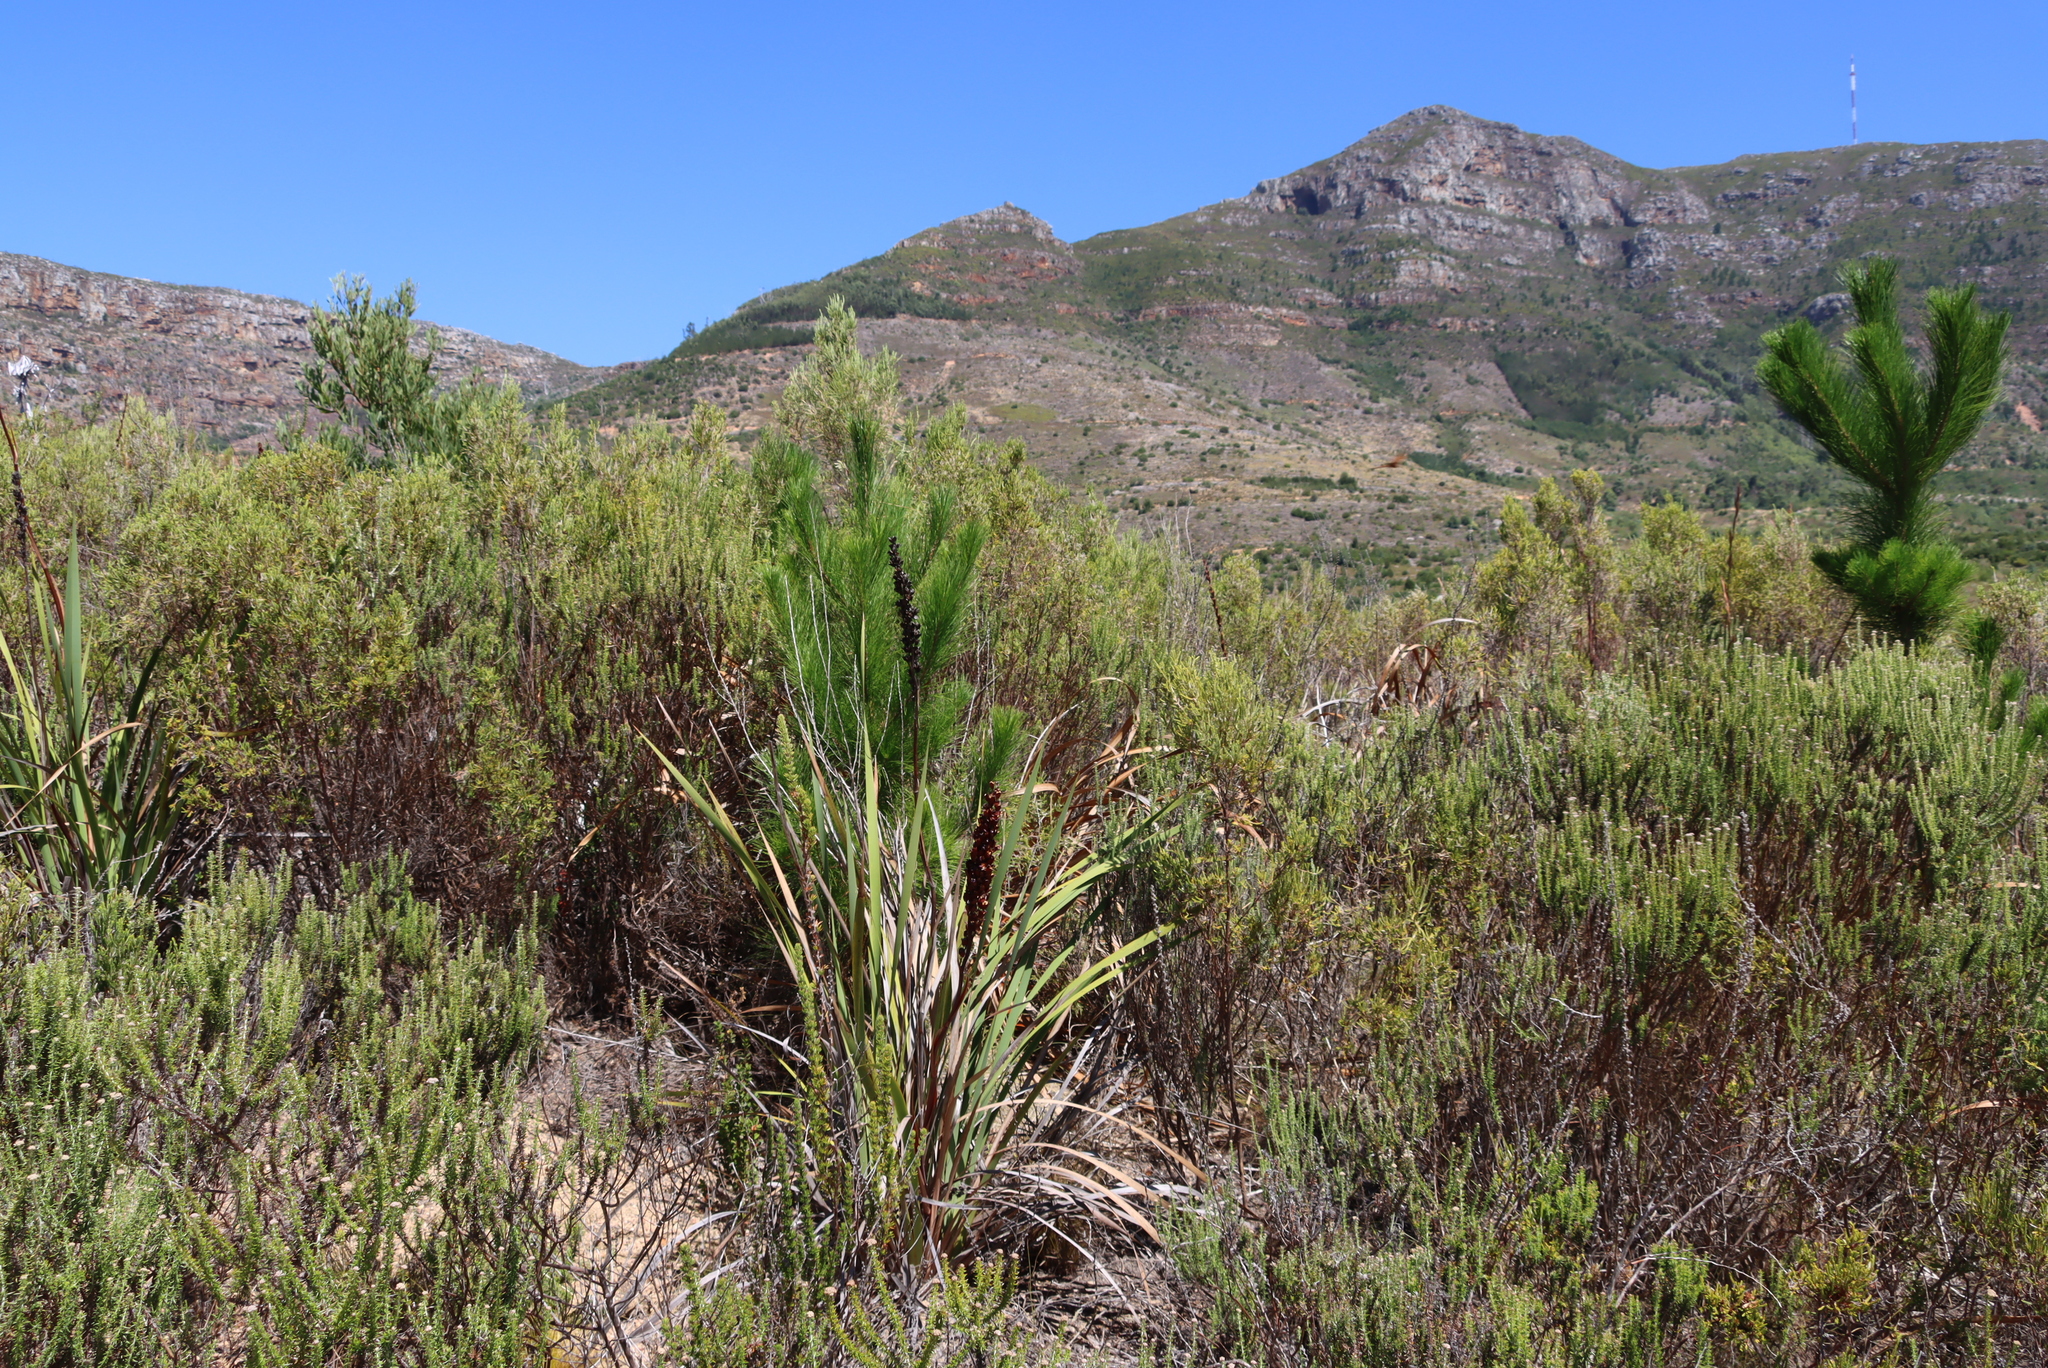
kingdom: Plantae
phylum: Tracheophyta
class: Pinopsida
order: Pinales
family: Pinaceae
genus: Pinus
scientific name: Pinus radiata
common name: Monterey pine
